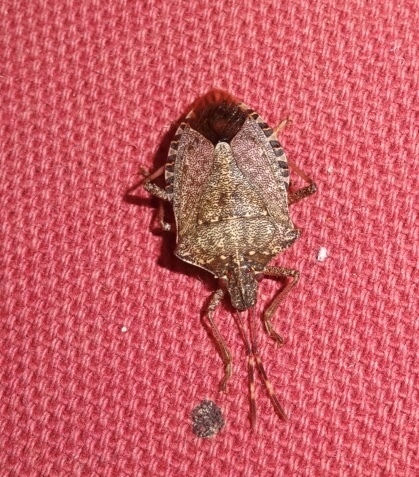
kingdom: Animalia
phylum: Arthropoda
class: Insecta
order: Hemiptera
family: Pentatomidae
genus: Halyomorpha
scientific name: Halyomorpha halys
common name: Brown marmorated stink bug
